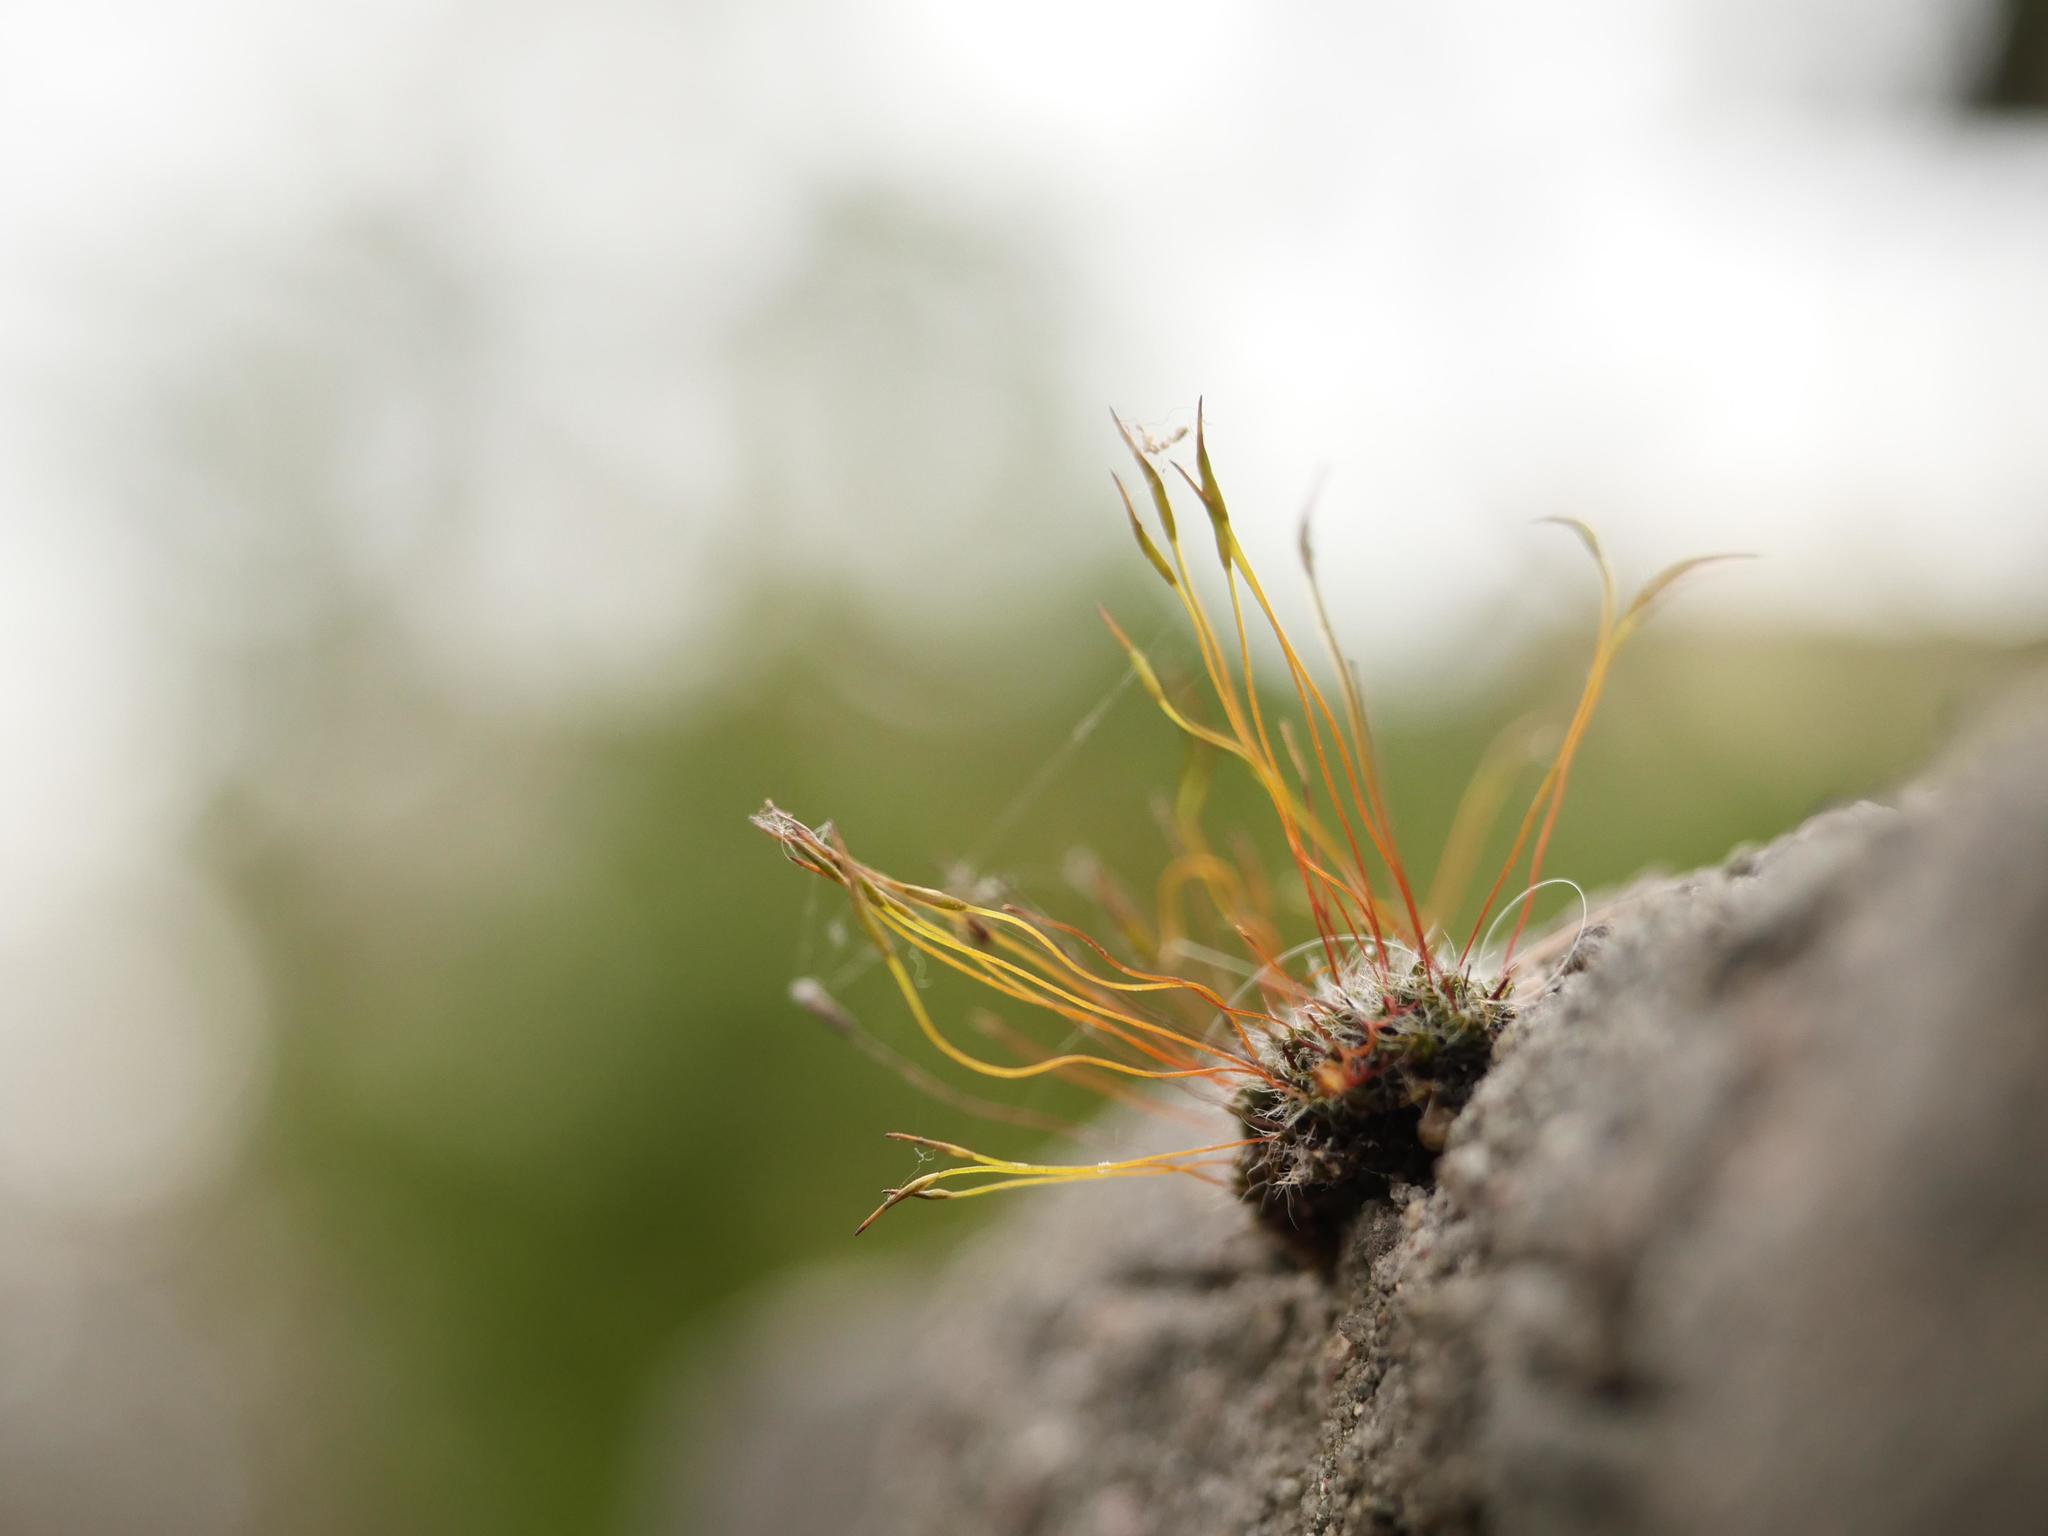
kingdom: Plantae
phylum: Bryophyta
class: Bryopsida
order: Pottiales
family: Pottiaceae
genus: Tortula
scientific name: Tortula muralis
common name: Wall screw-moss
